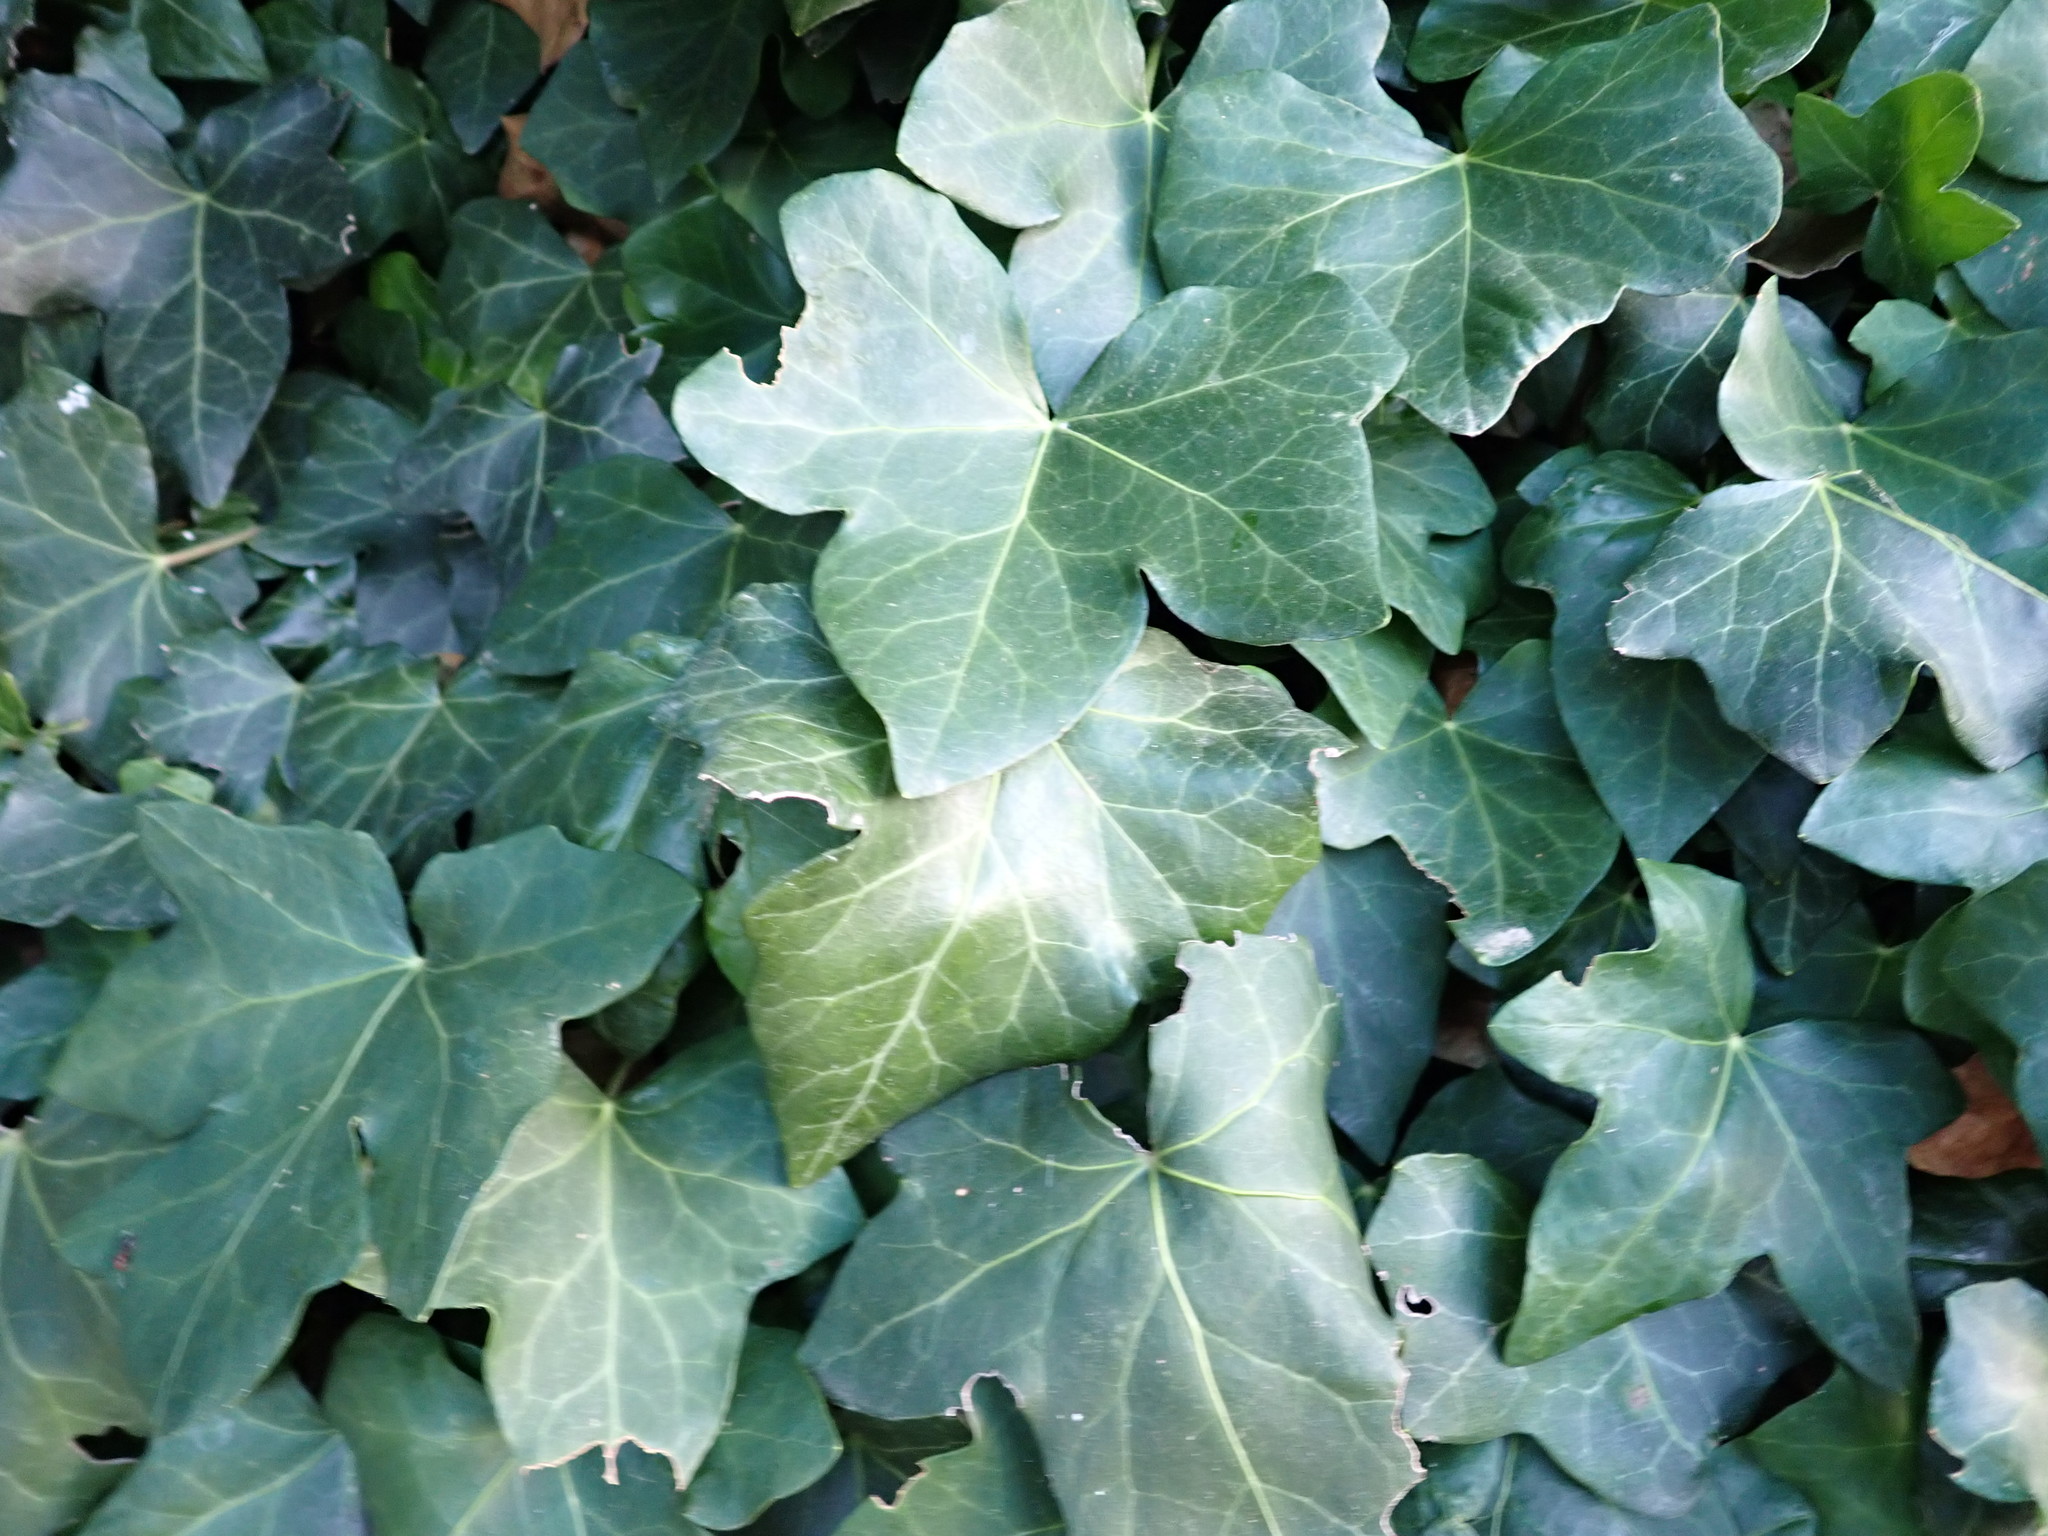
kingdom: Plantae
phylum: Tracheophyta
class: Magnoliopsida
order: Apiales
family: Araliaceae
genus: Hedera
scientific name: Hedera helix
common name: Ivy
